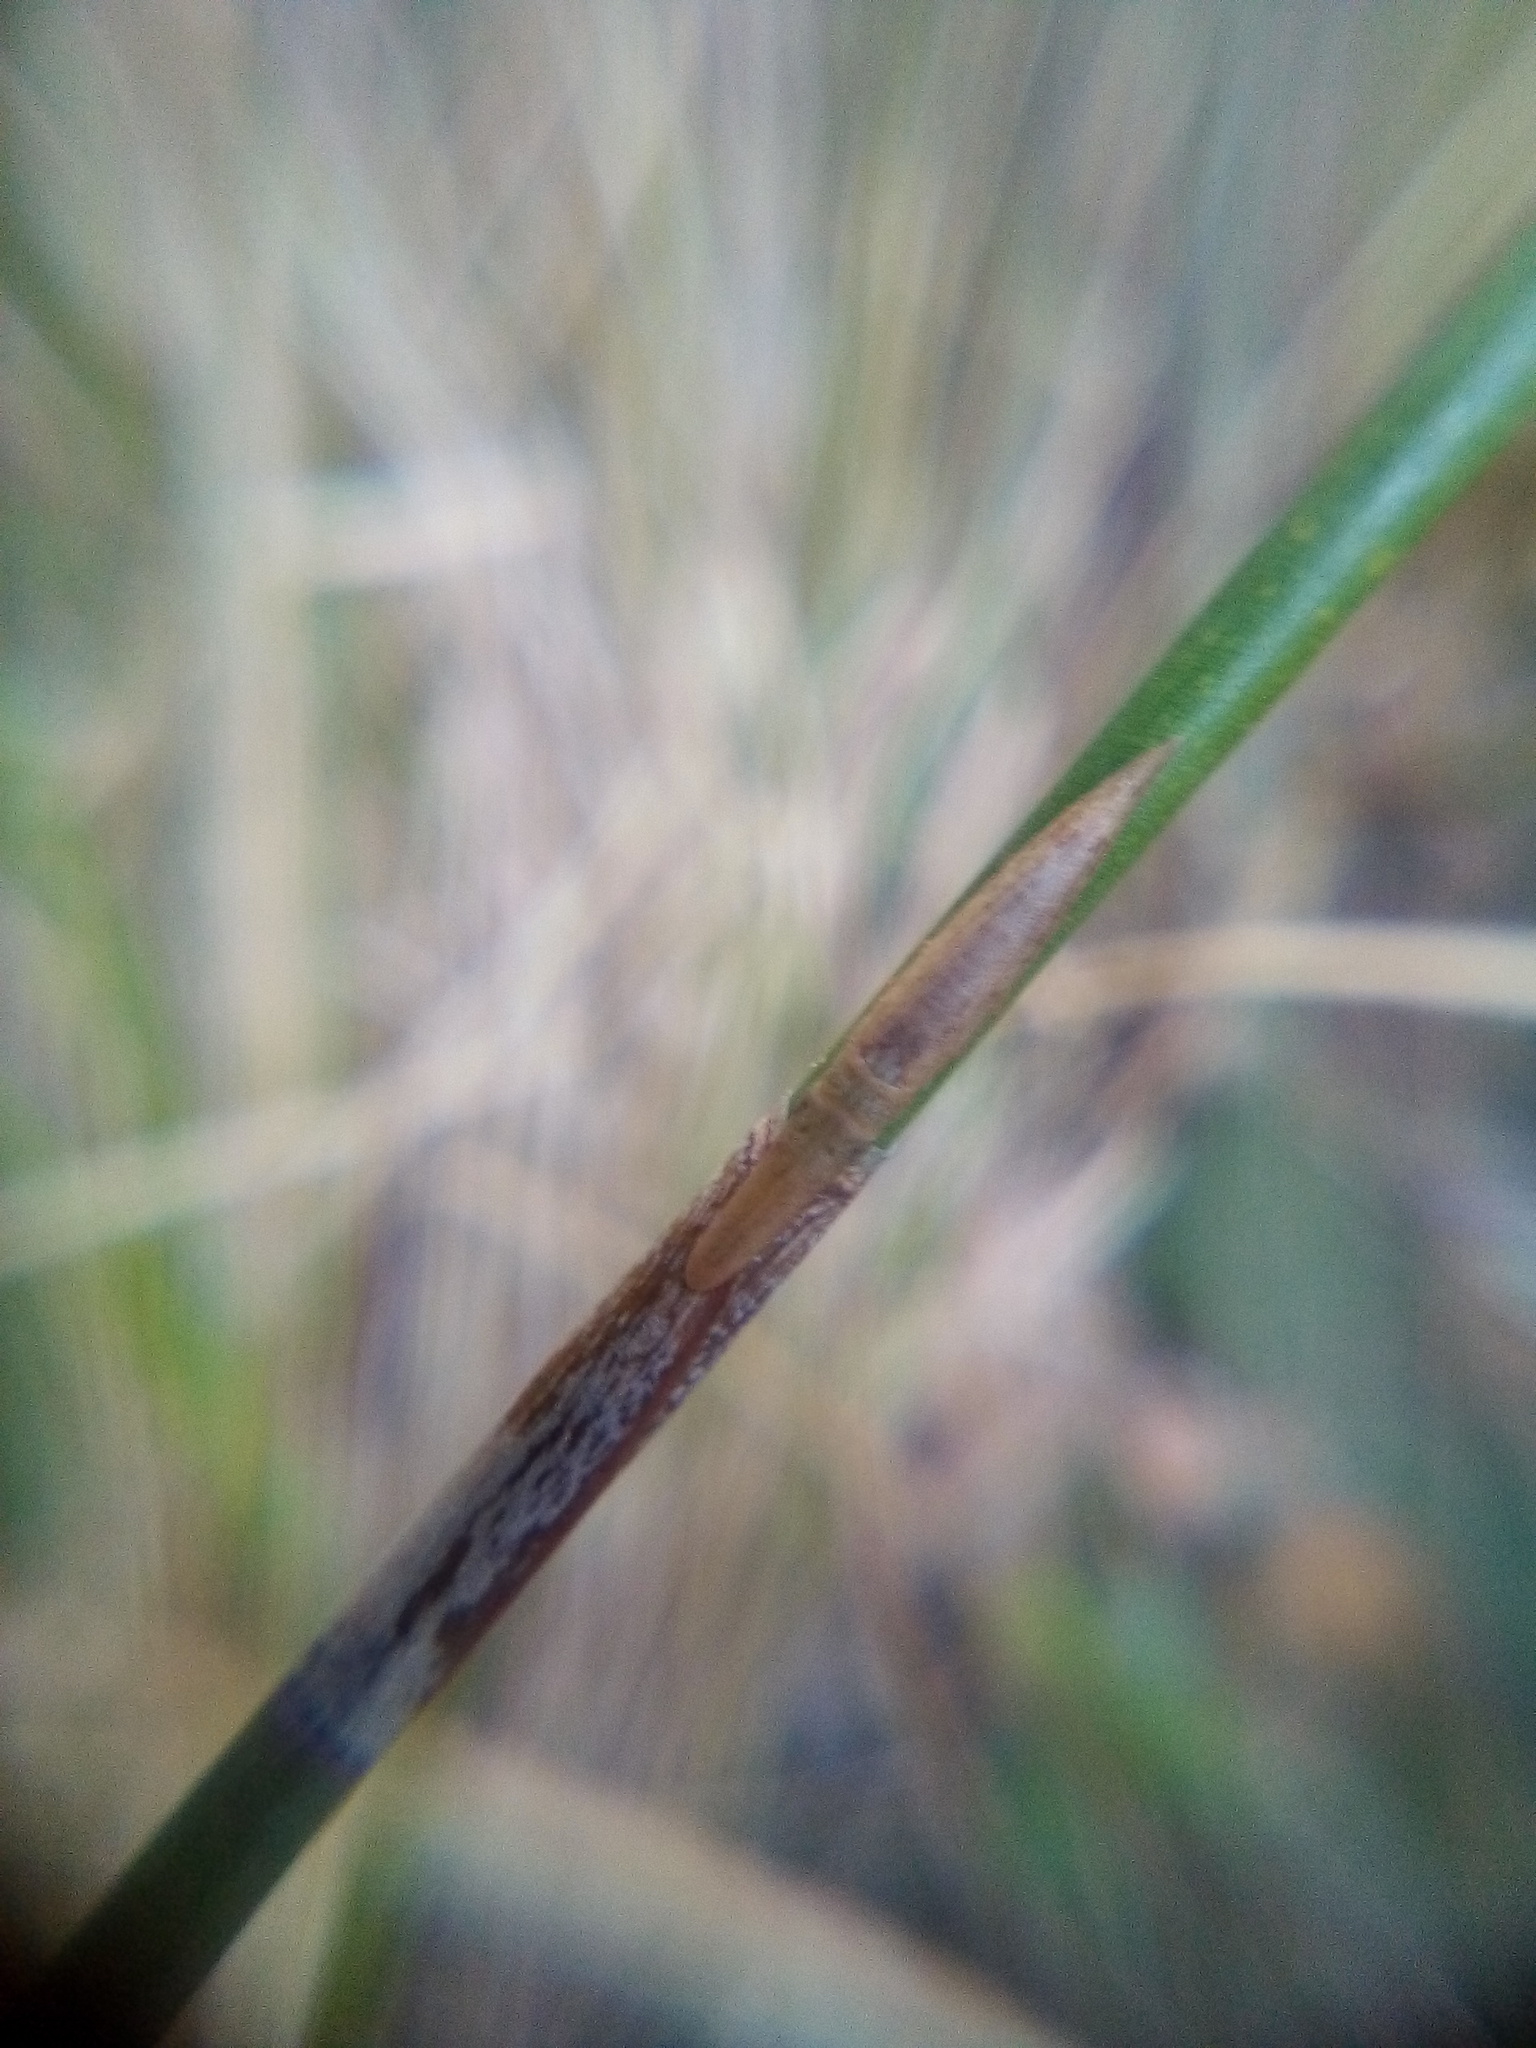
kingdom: Animalia
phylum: Arthropoda
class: Insecta
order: Hemiptera
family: Cicadellidae
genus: Paracephaleus
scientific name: Paracephaleus hudsoni
